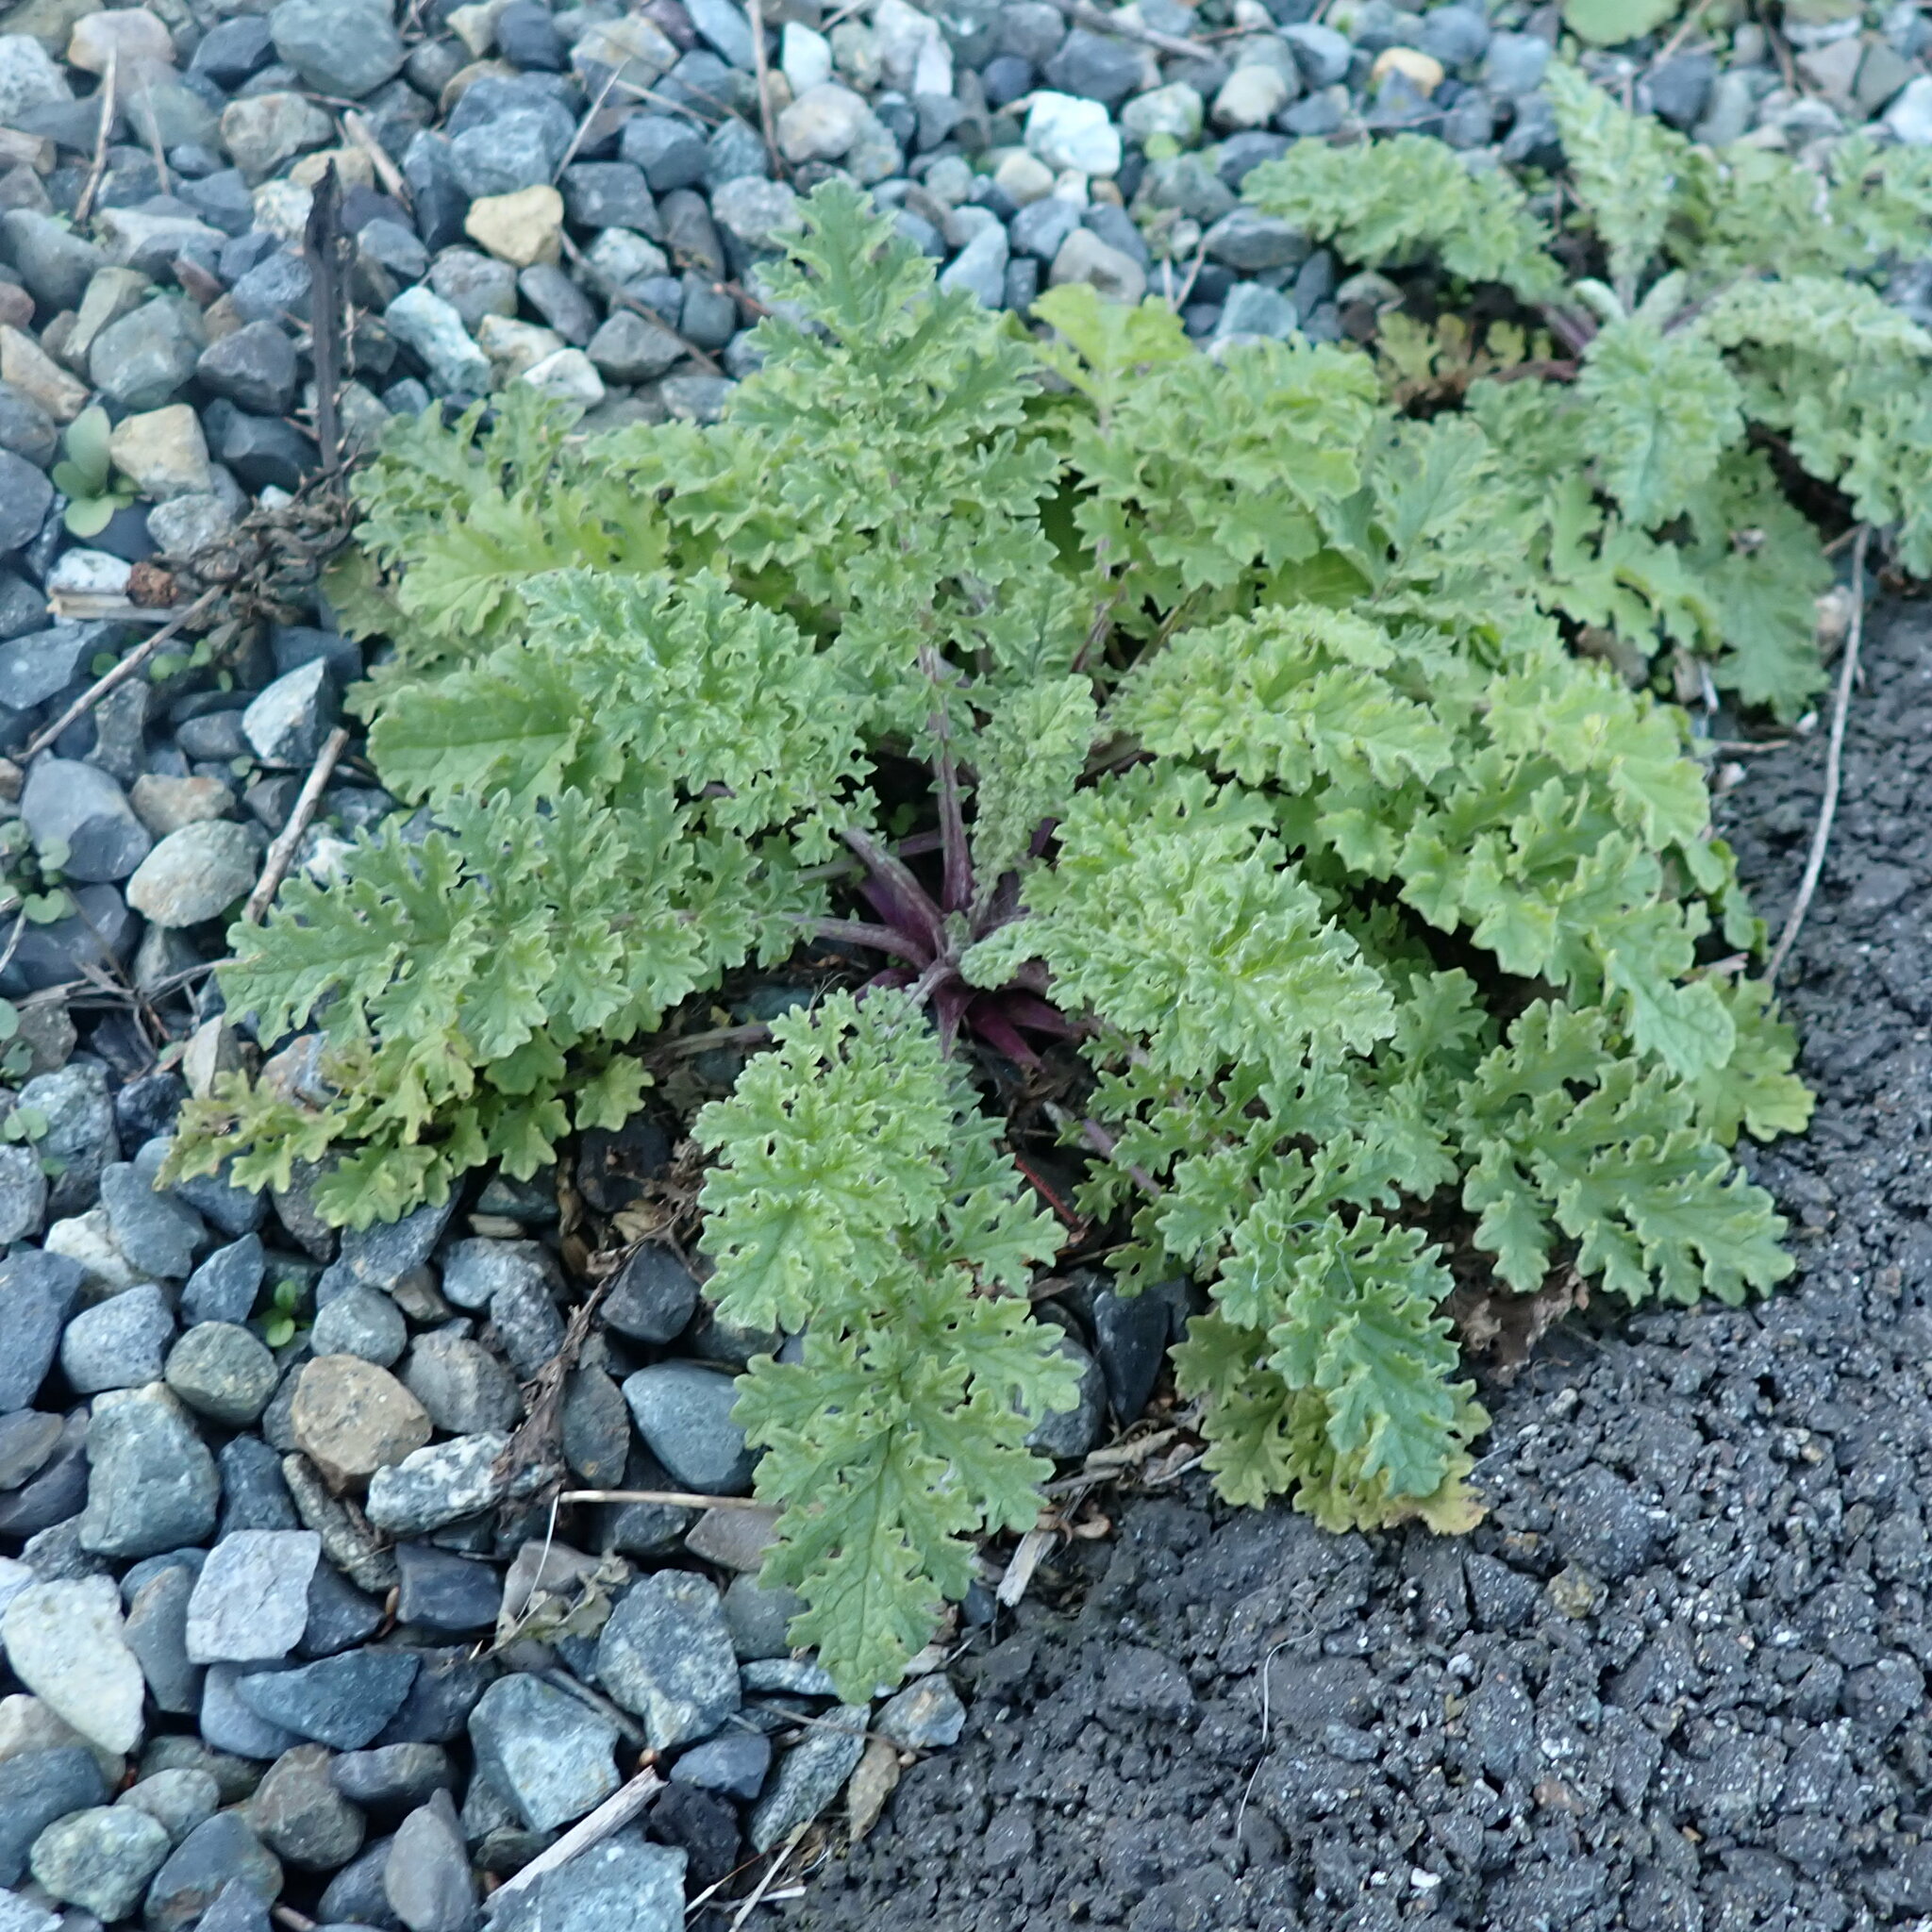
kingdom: Plantae
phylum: Tracheophyta
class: Magnoliopsida
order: Asterales
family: Asteraceae
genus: Jacobaea
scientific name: Jacobaea vulgaris
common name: Stinking willie
